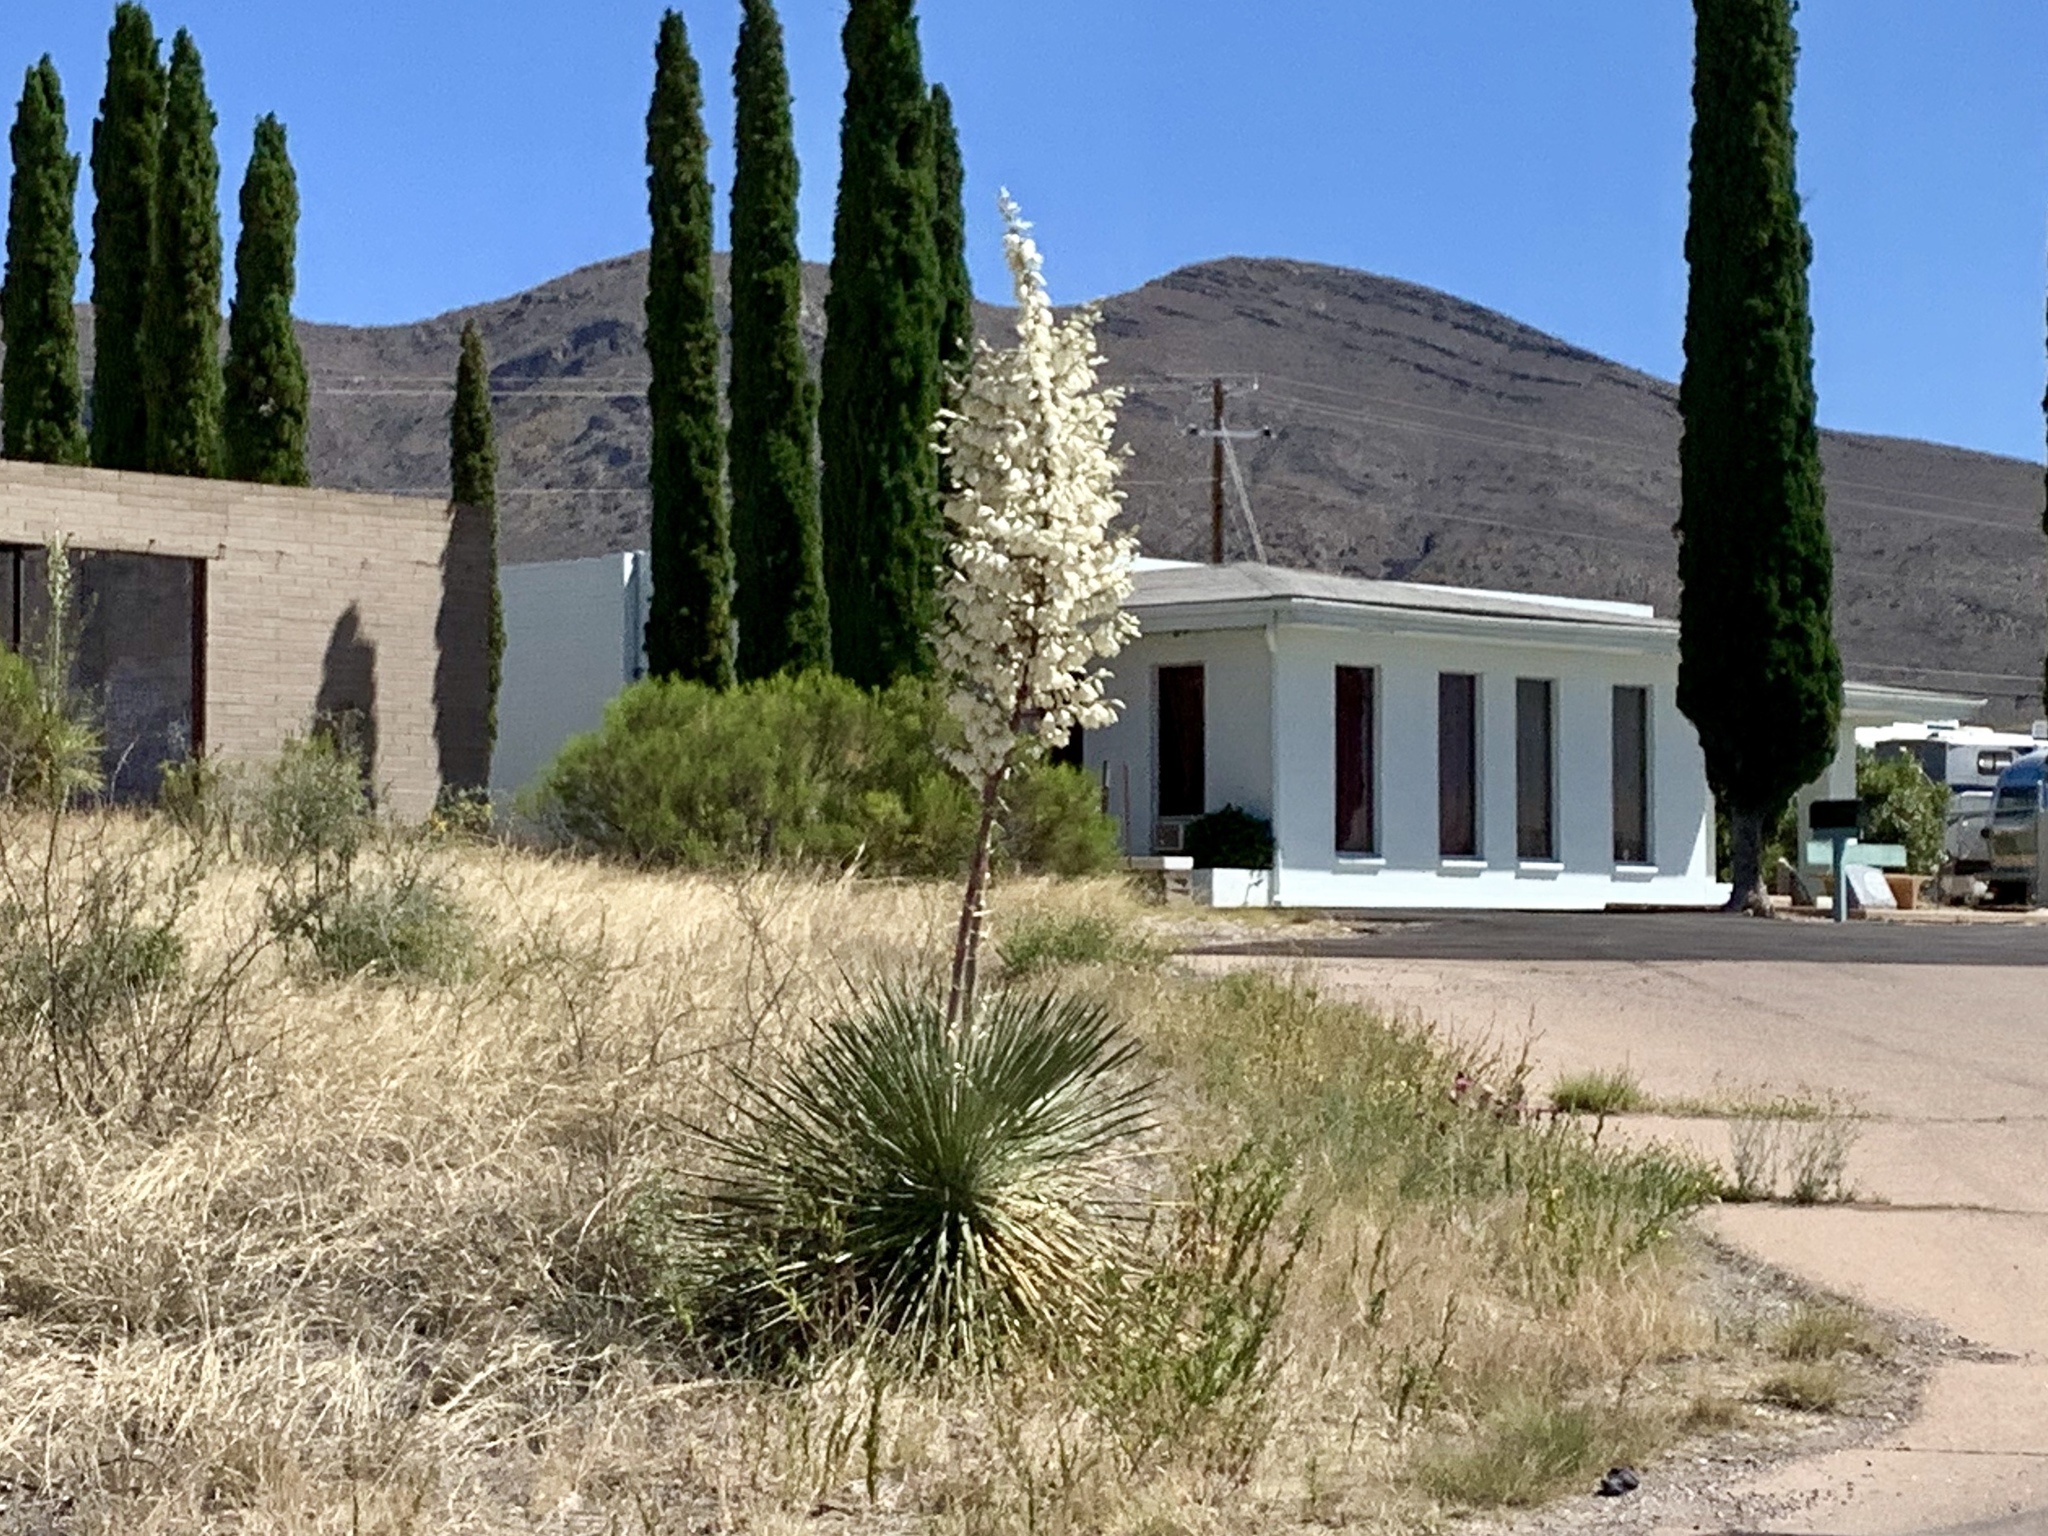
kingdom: Plantae
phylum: Tracheophyta
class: Liliopsida
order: Asparagales
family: Asparagaceae
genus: Yucca
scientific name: Yucca elata
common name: Palmella
